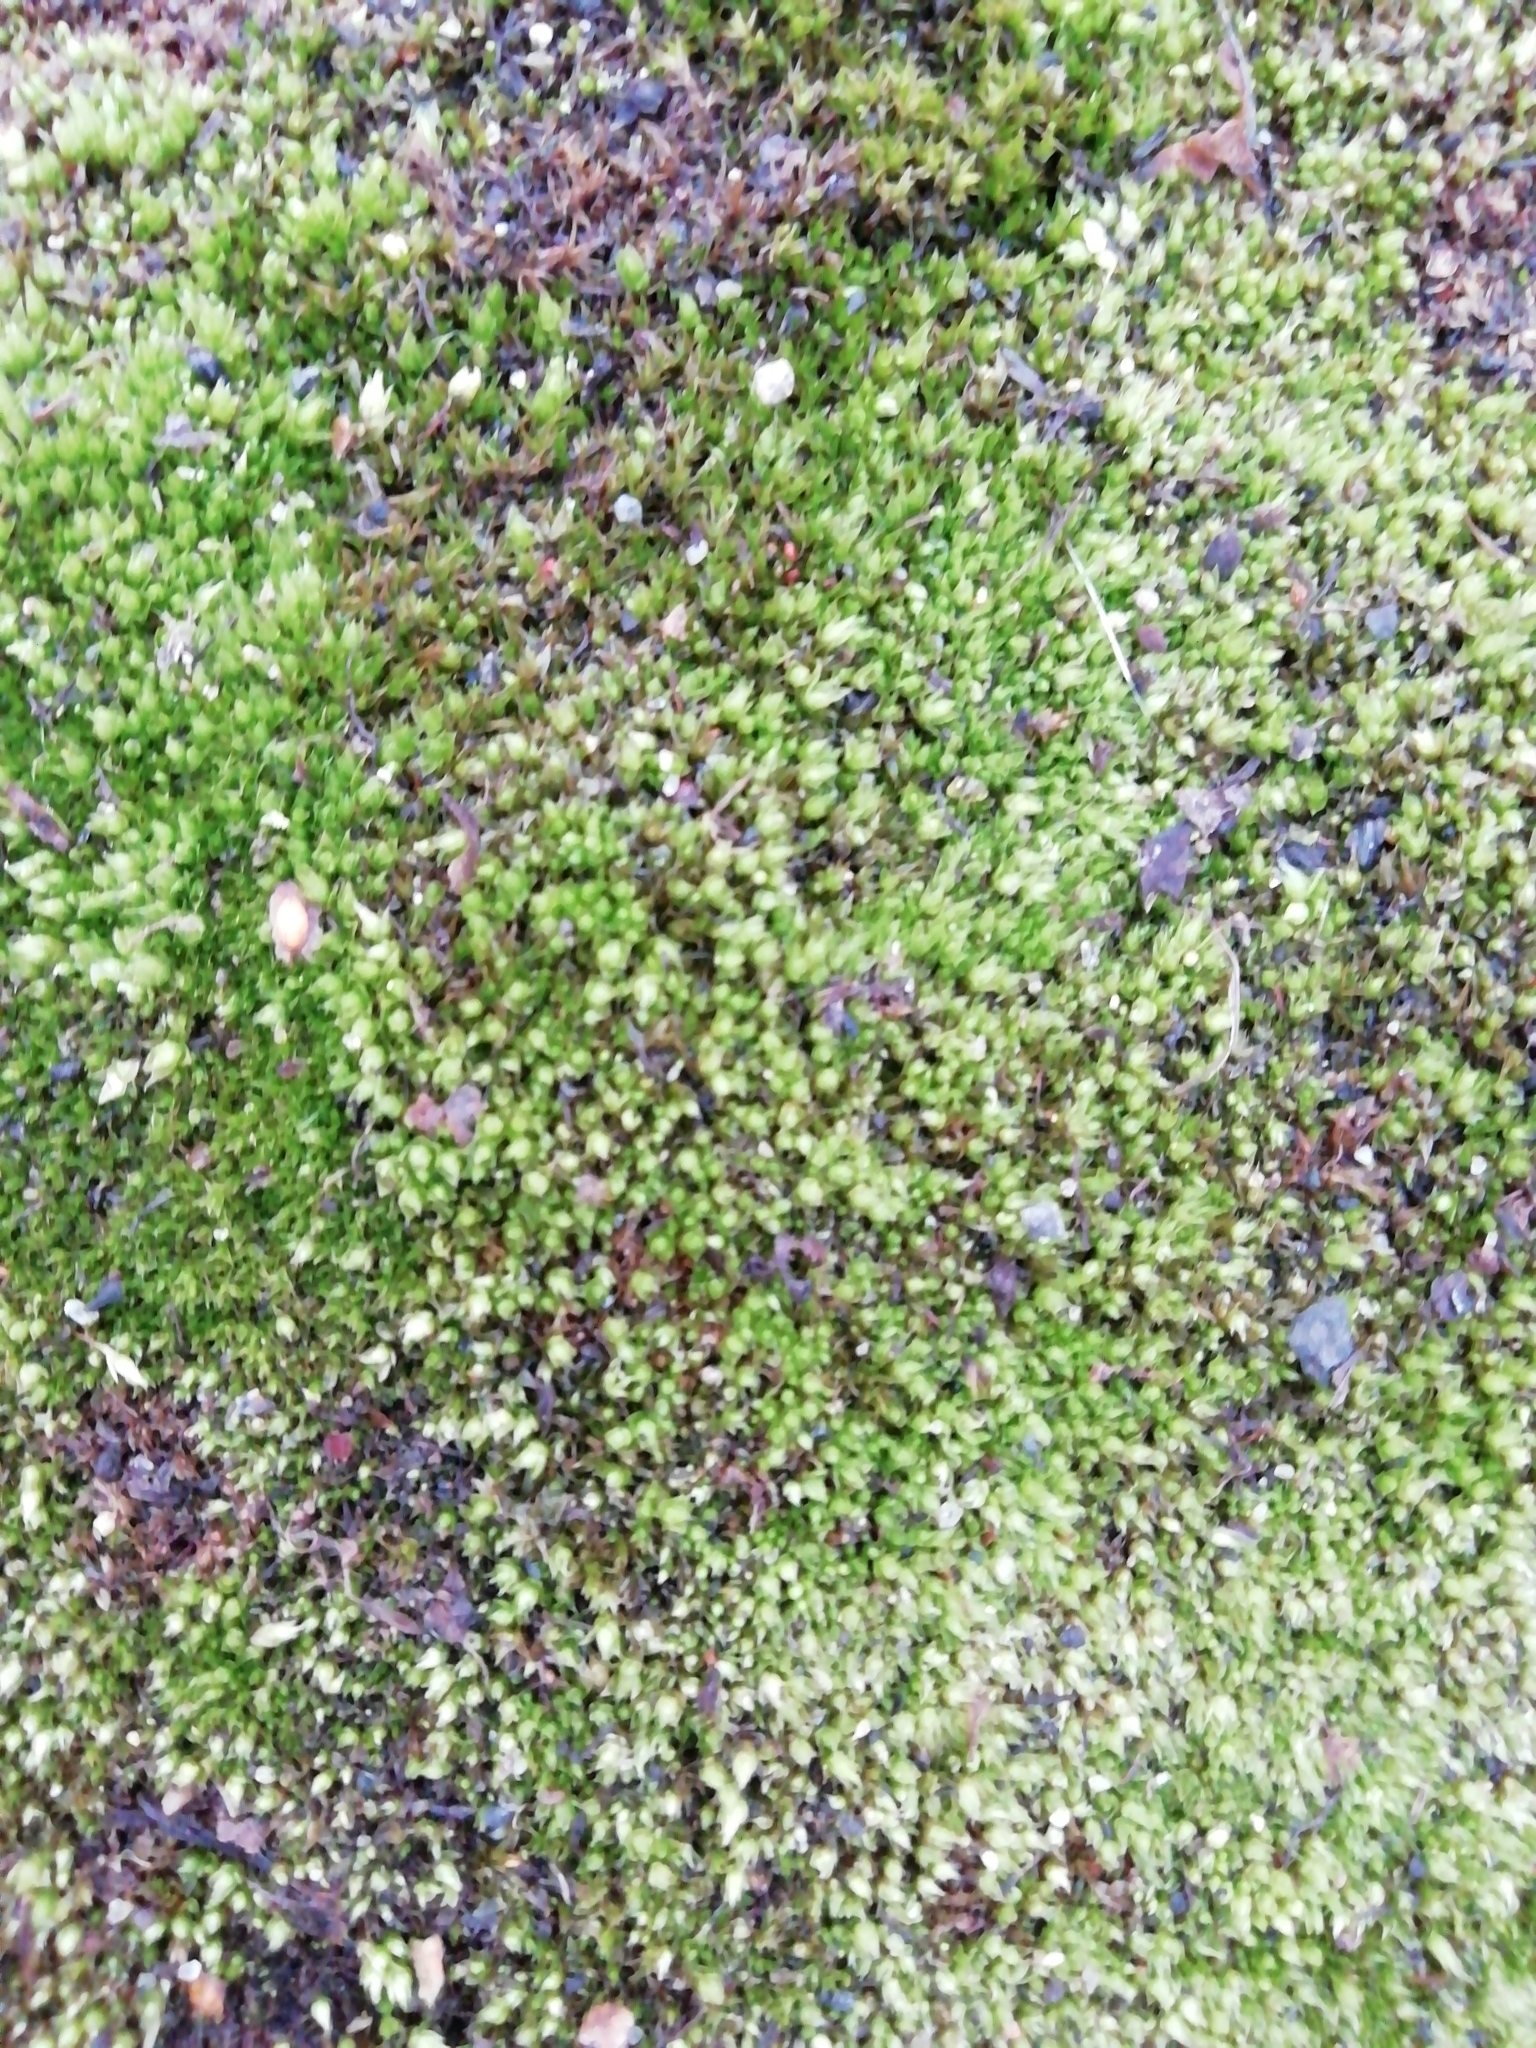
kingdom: Plantae
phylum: Bryophyta
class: Bryopsida
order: Bryales
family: Bryaceae
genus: Bryum
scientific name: Bryum
